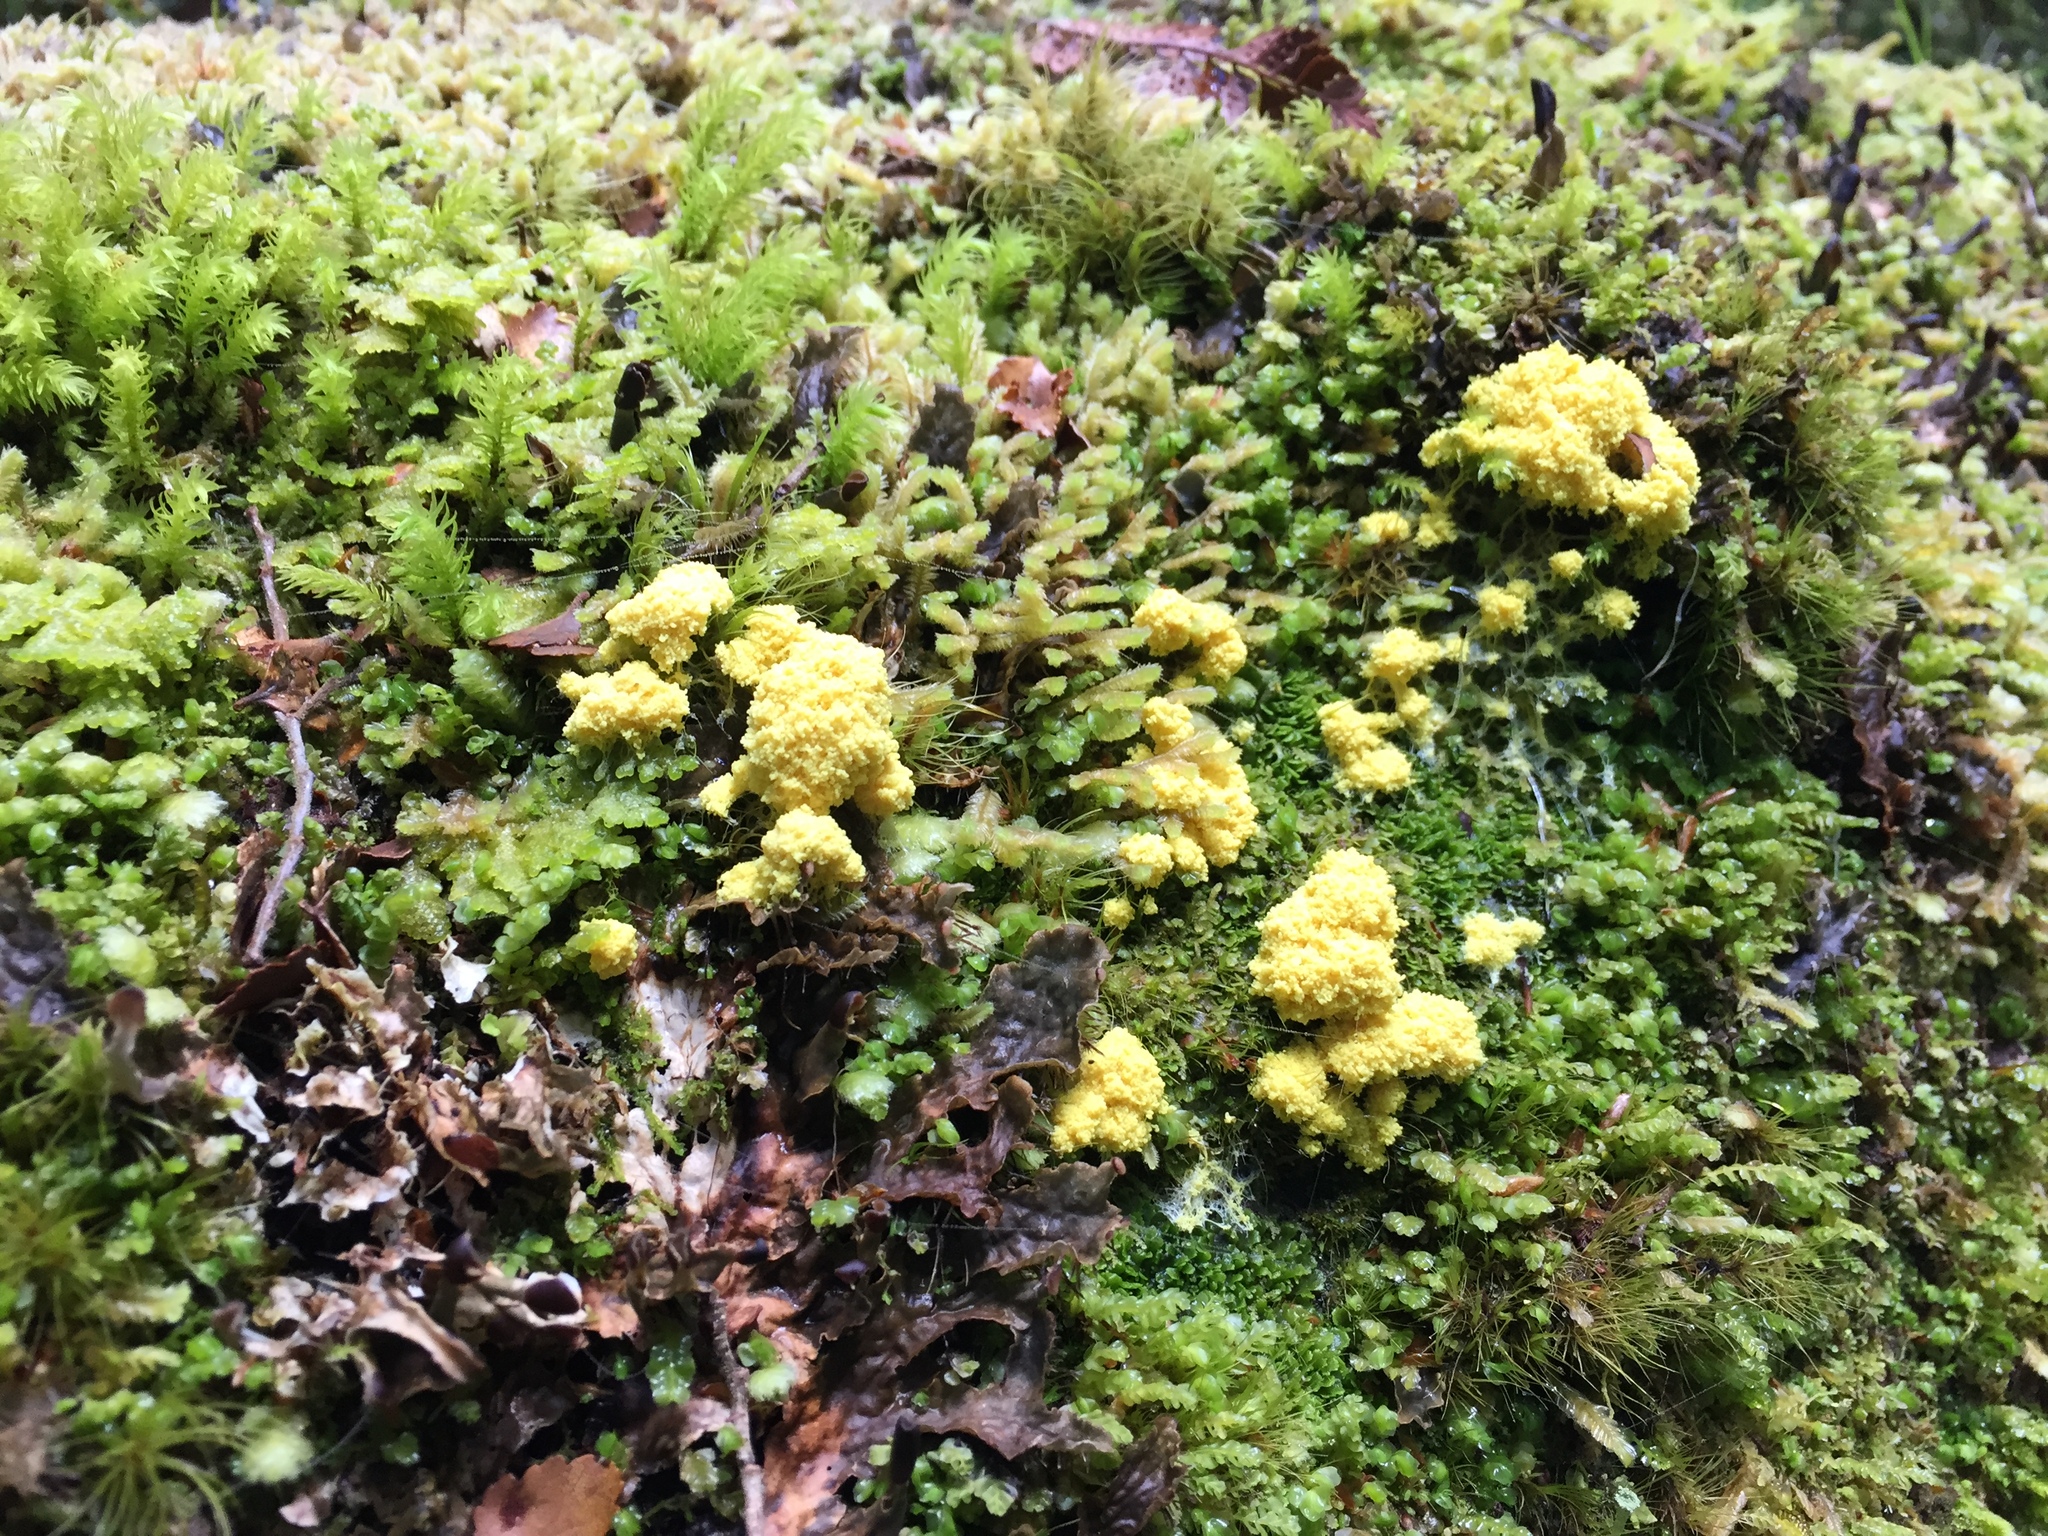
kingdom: Protozoa
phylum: Mycetozoa
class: Myxomycetes
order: Physarales
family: Physaraceae
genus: Fuligo
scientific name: Fuligo septica
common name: Dog vomit slime mold
